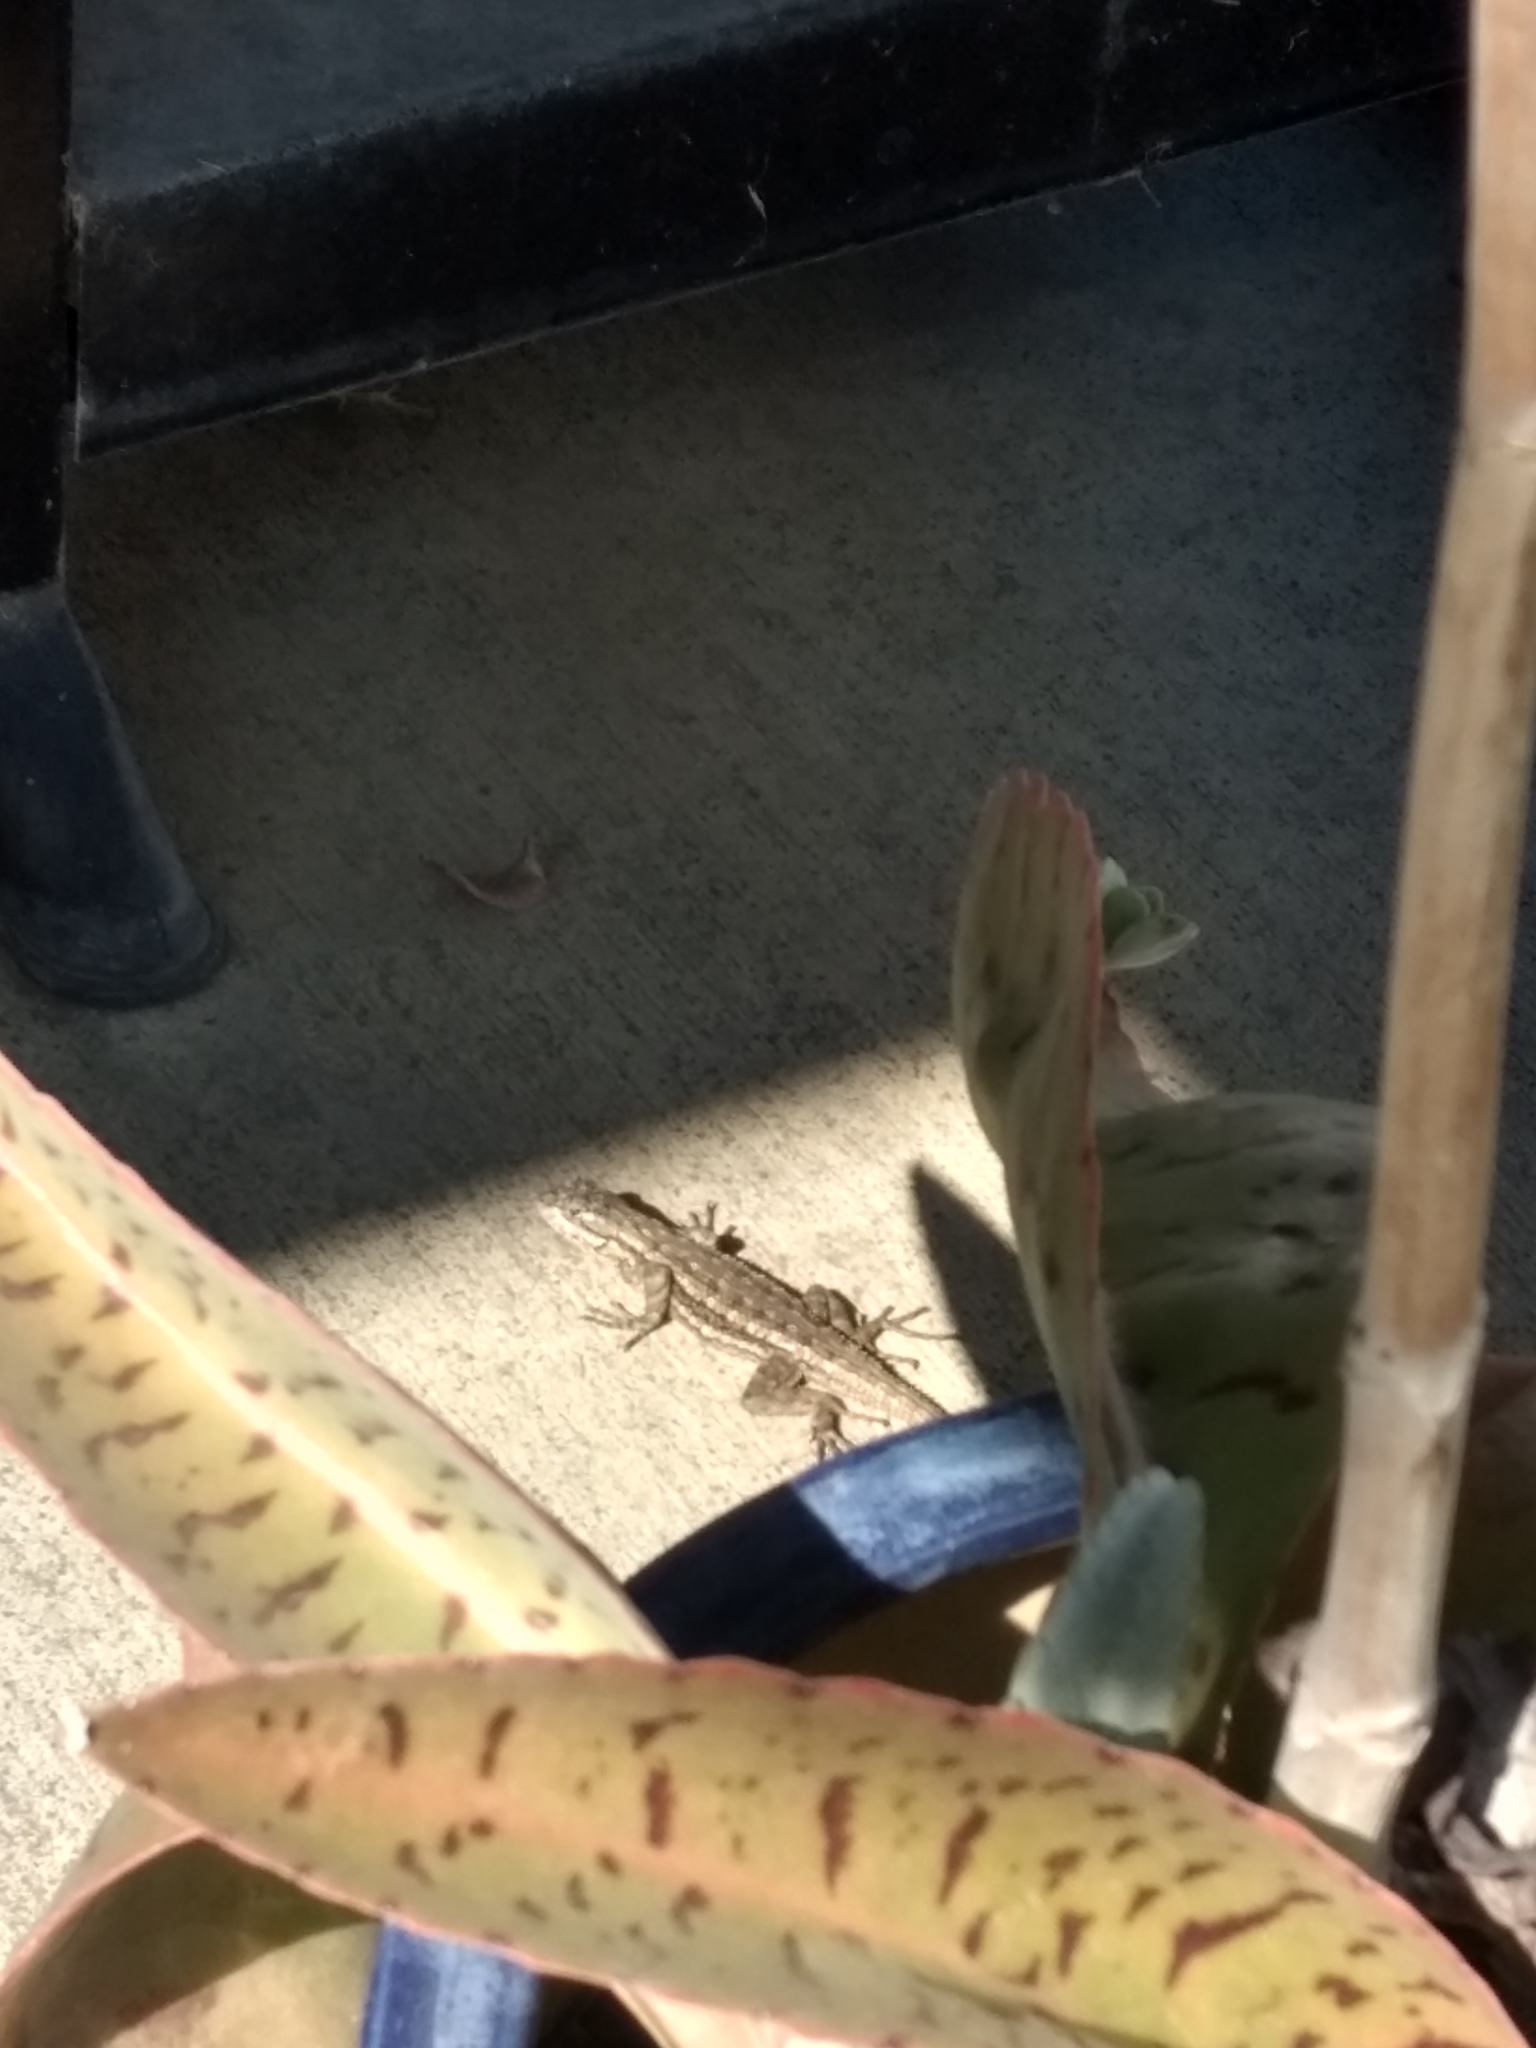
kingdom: Animalia
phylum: Chordata
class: Squamata
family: Phrynosomatidae
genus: Sceloporus
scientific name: Sceloporus occidentalis
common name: Western fence lizard
